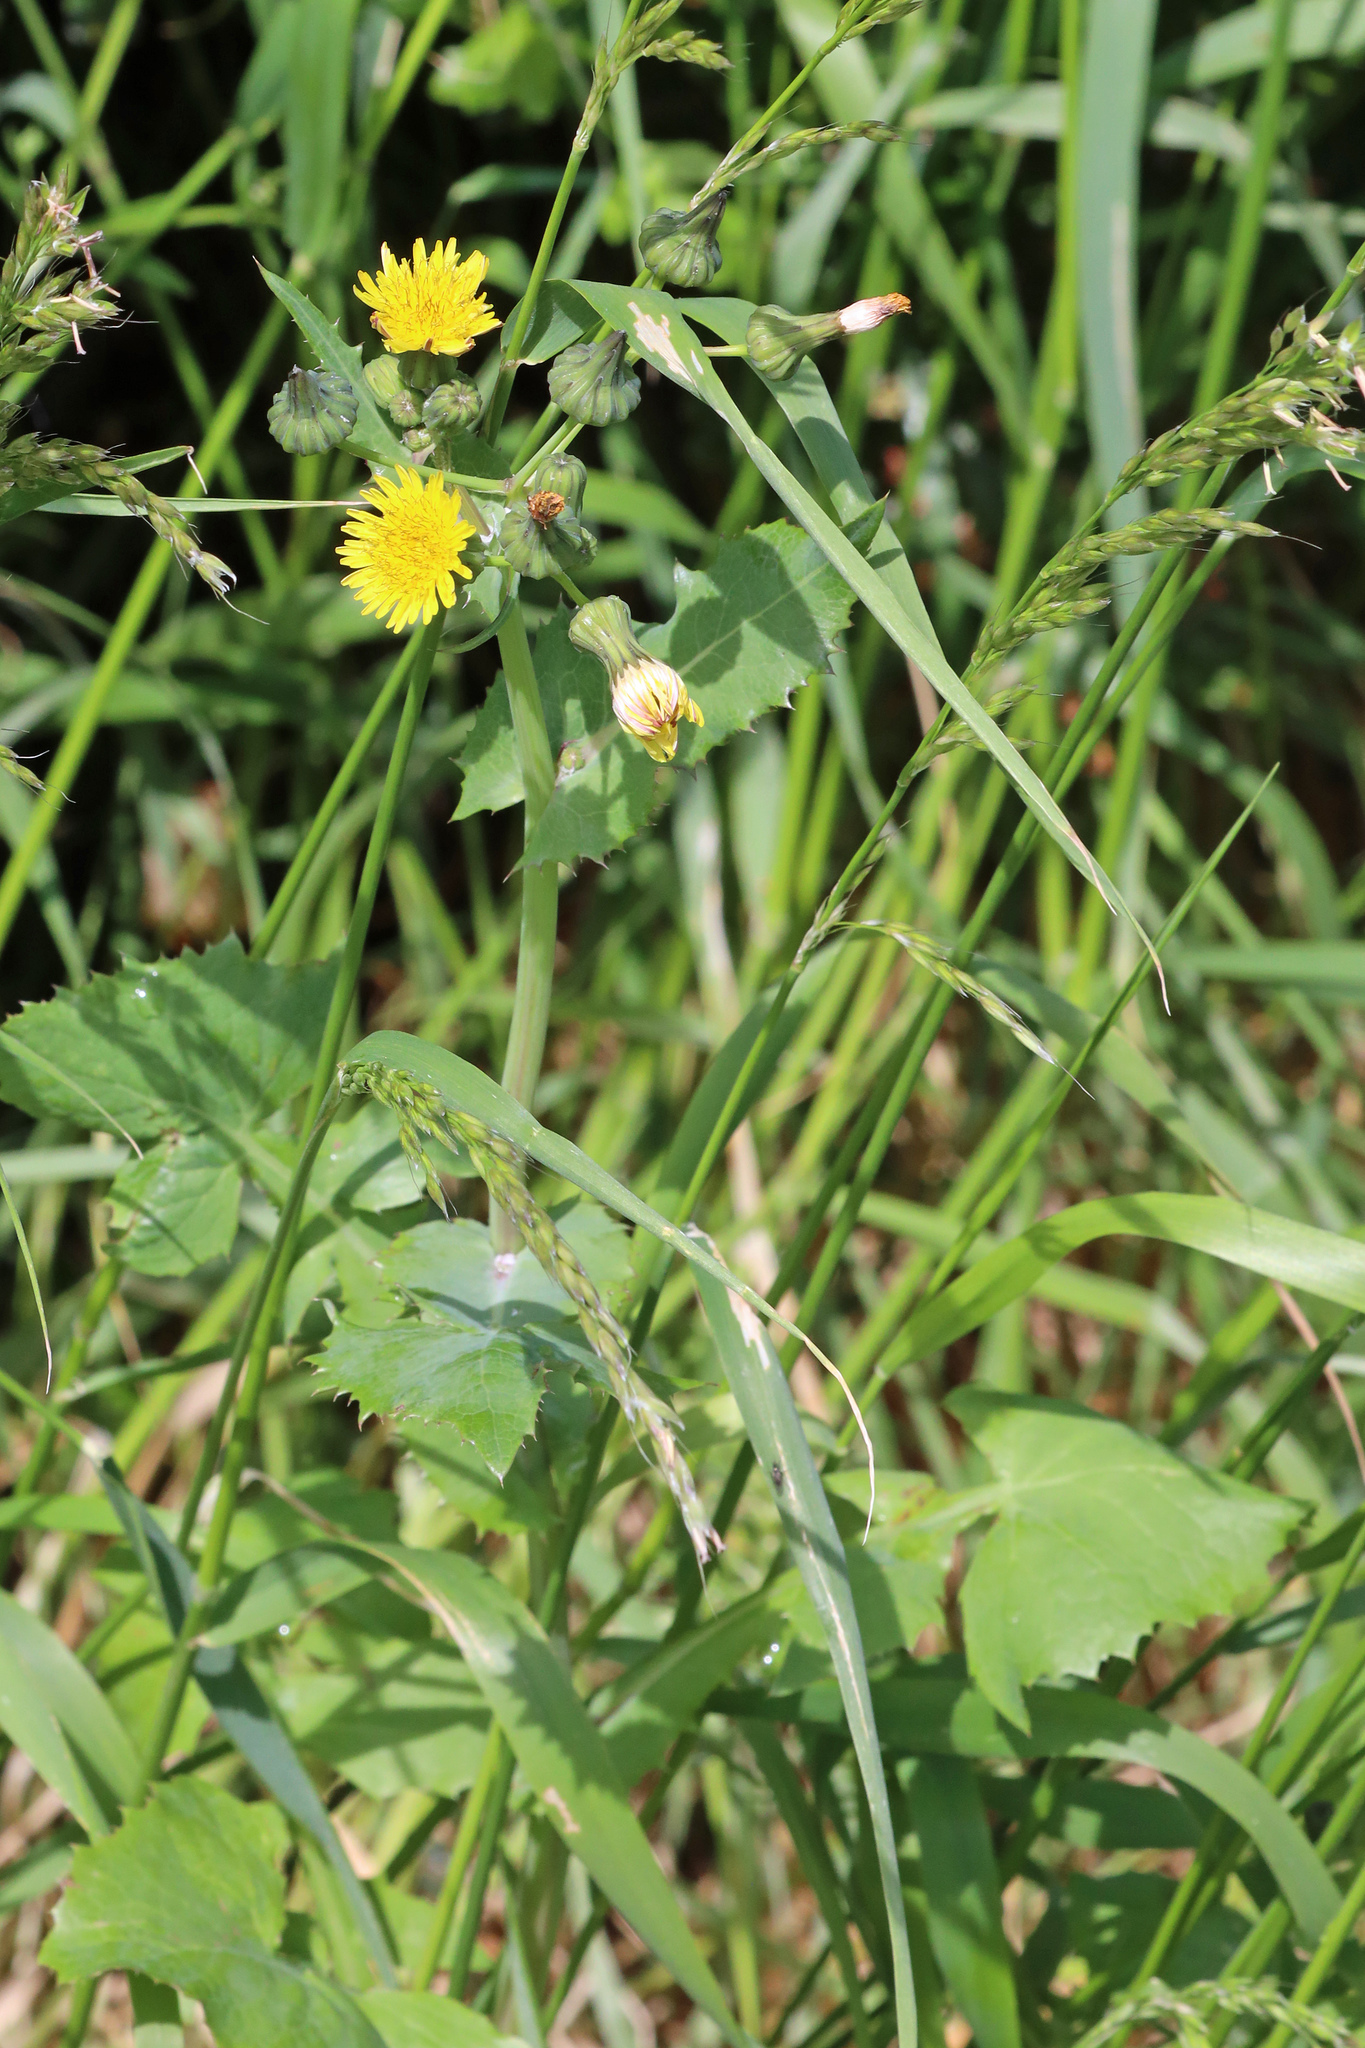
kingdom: Plantae
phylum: Tracheophyta
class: Magnoliopsida
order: Asterales
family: Asteraceae
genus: Sonchus
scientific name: Sonchus oleraceus
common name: Common sowthistle
